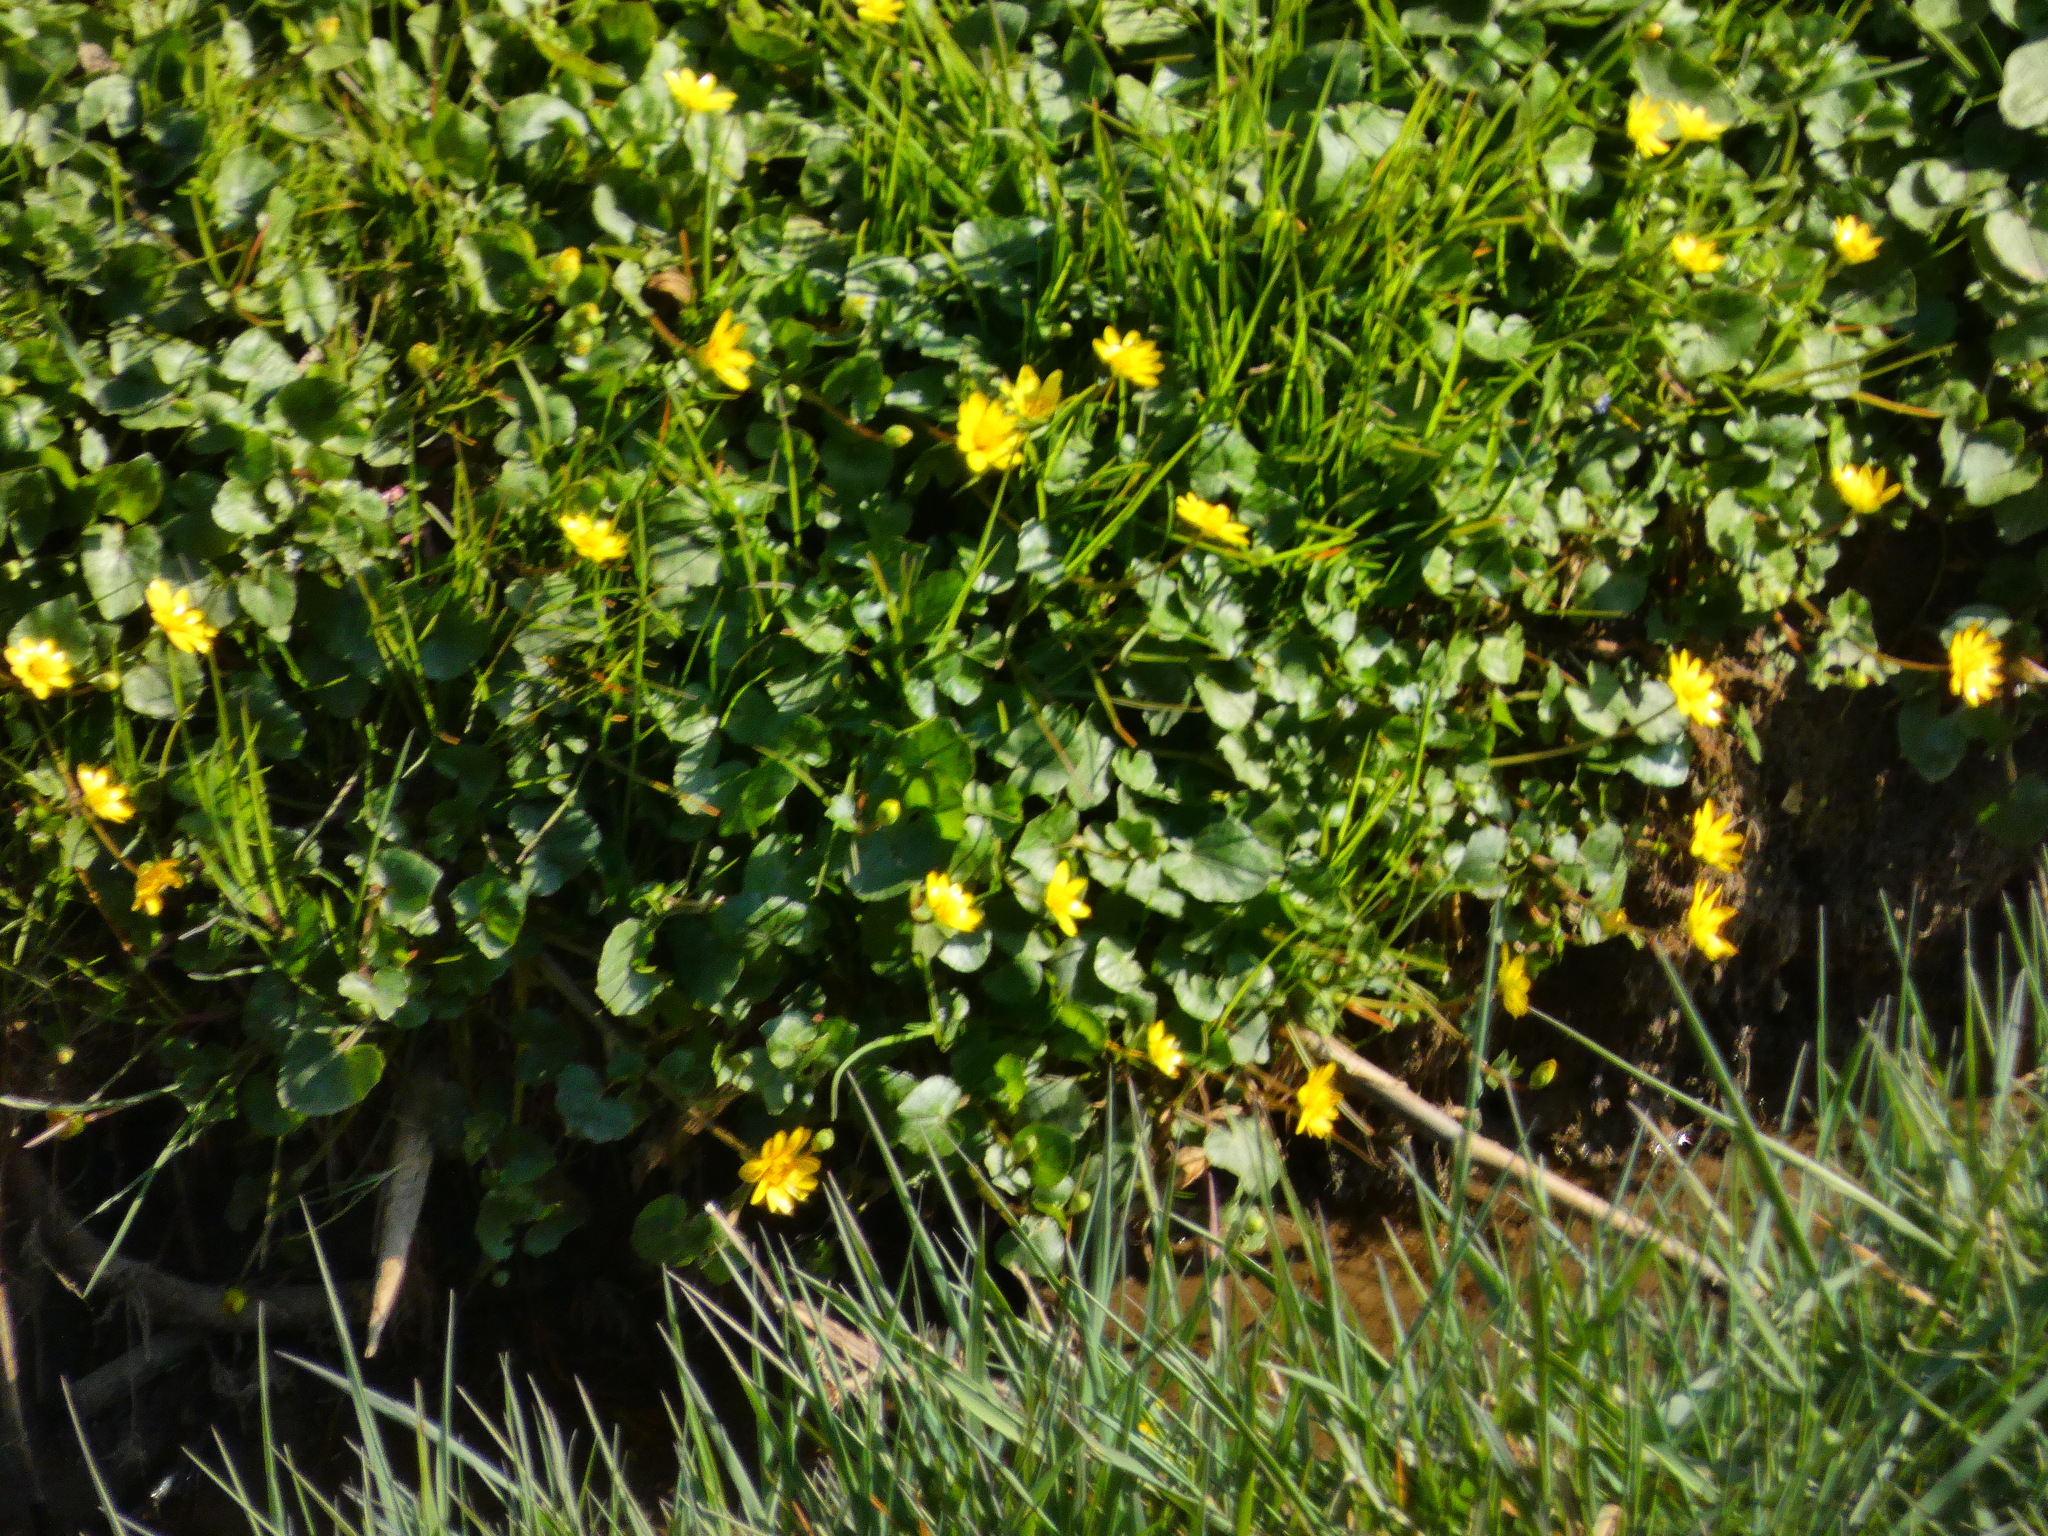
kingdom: Plantae
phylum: Tracheophyta
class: Magnoliopsida
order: Ranunculales
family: Ranunculaceae
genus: Ficaria
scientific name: Ficaria verna
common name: Lesser celandine
